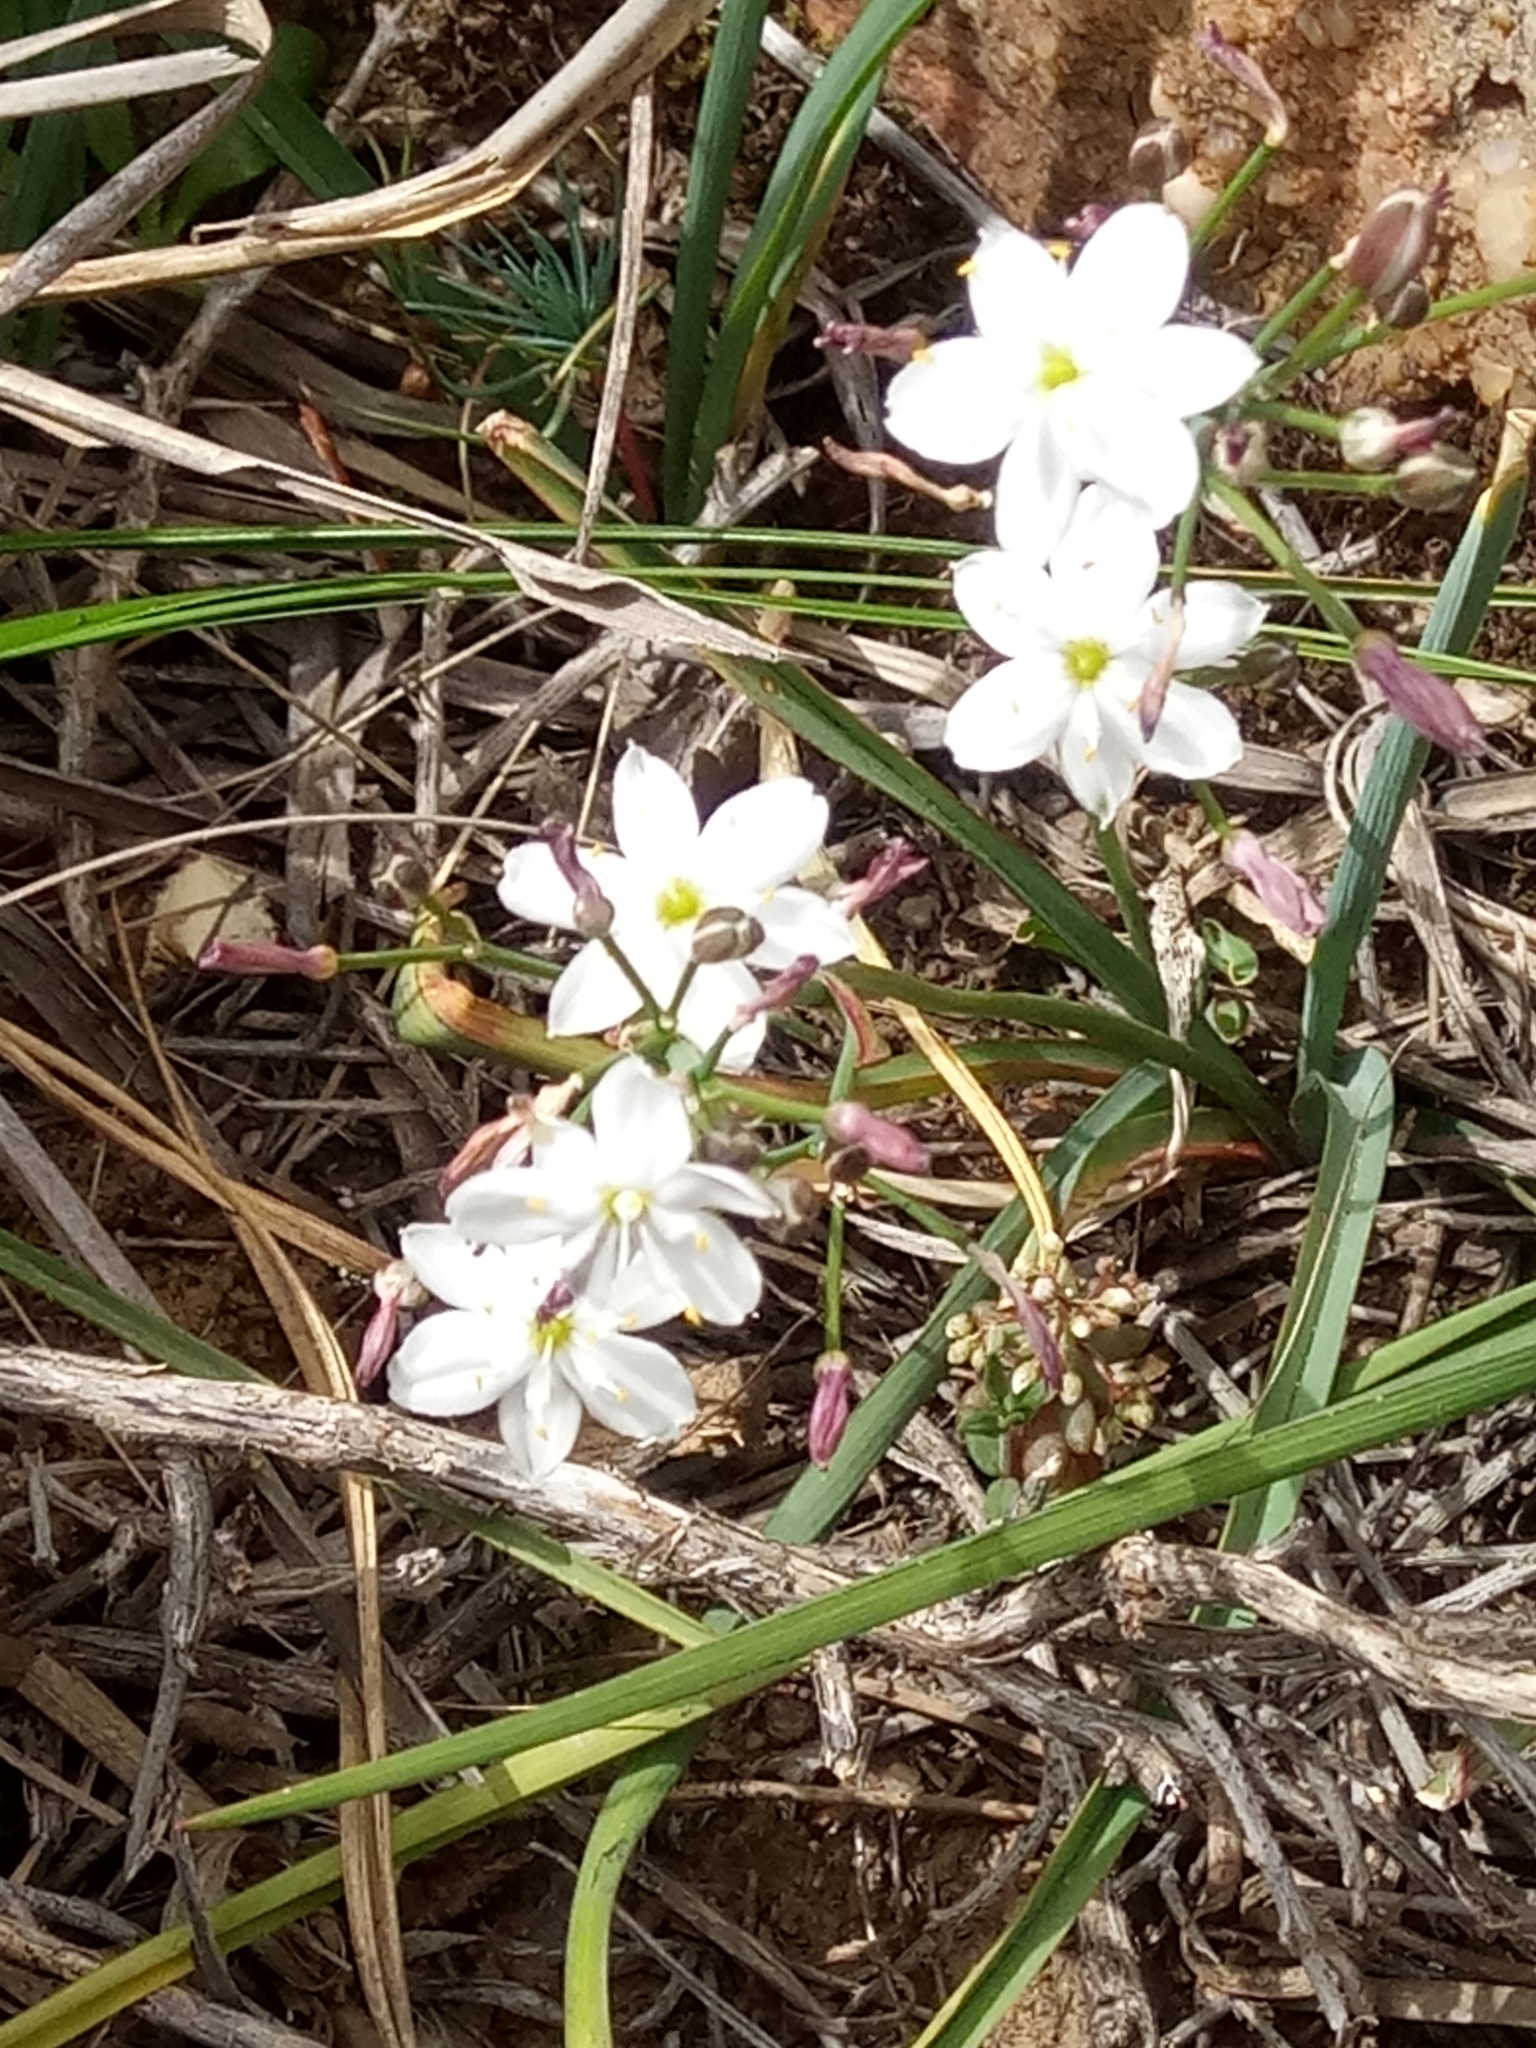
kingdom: Plantae
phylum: Tracheophyta
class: Liliopsida
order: Asparagales
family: Asphodelaceae
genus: Simethis
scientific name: Simethis mattiazzii
